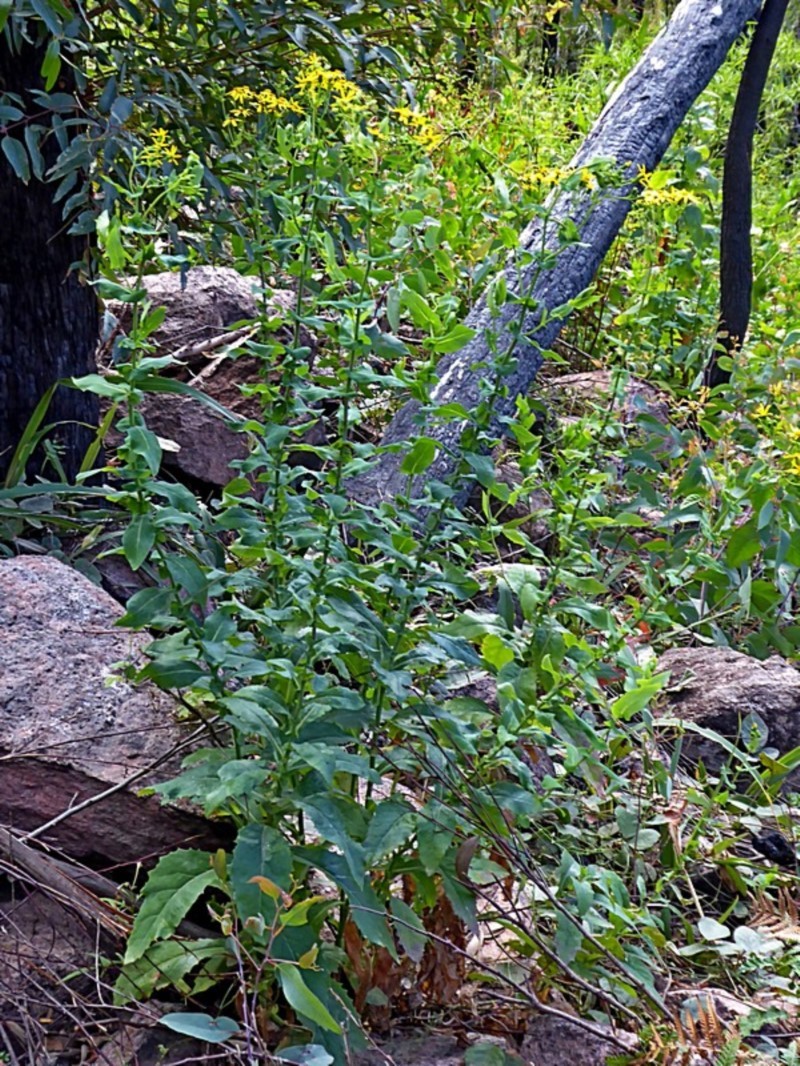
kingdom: Plantae
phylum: Tracheophyta
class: Magnoliopsida
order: Asterales
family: Asteraceae
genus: Lordhowea
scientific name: Lordhowea velleioides
